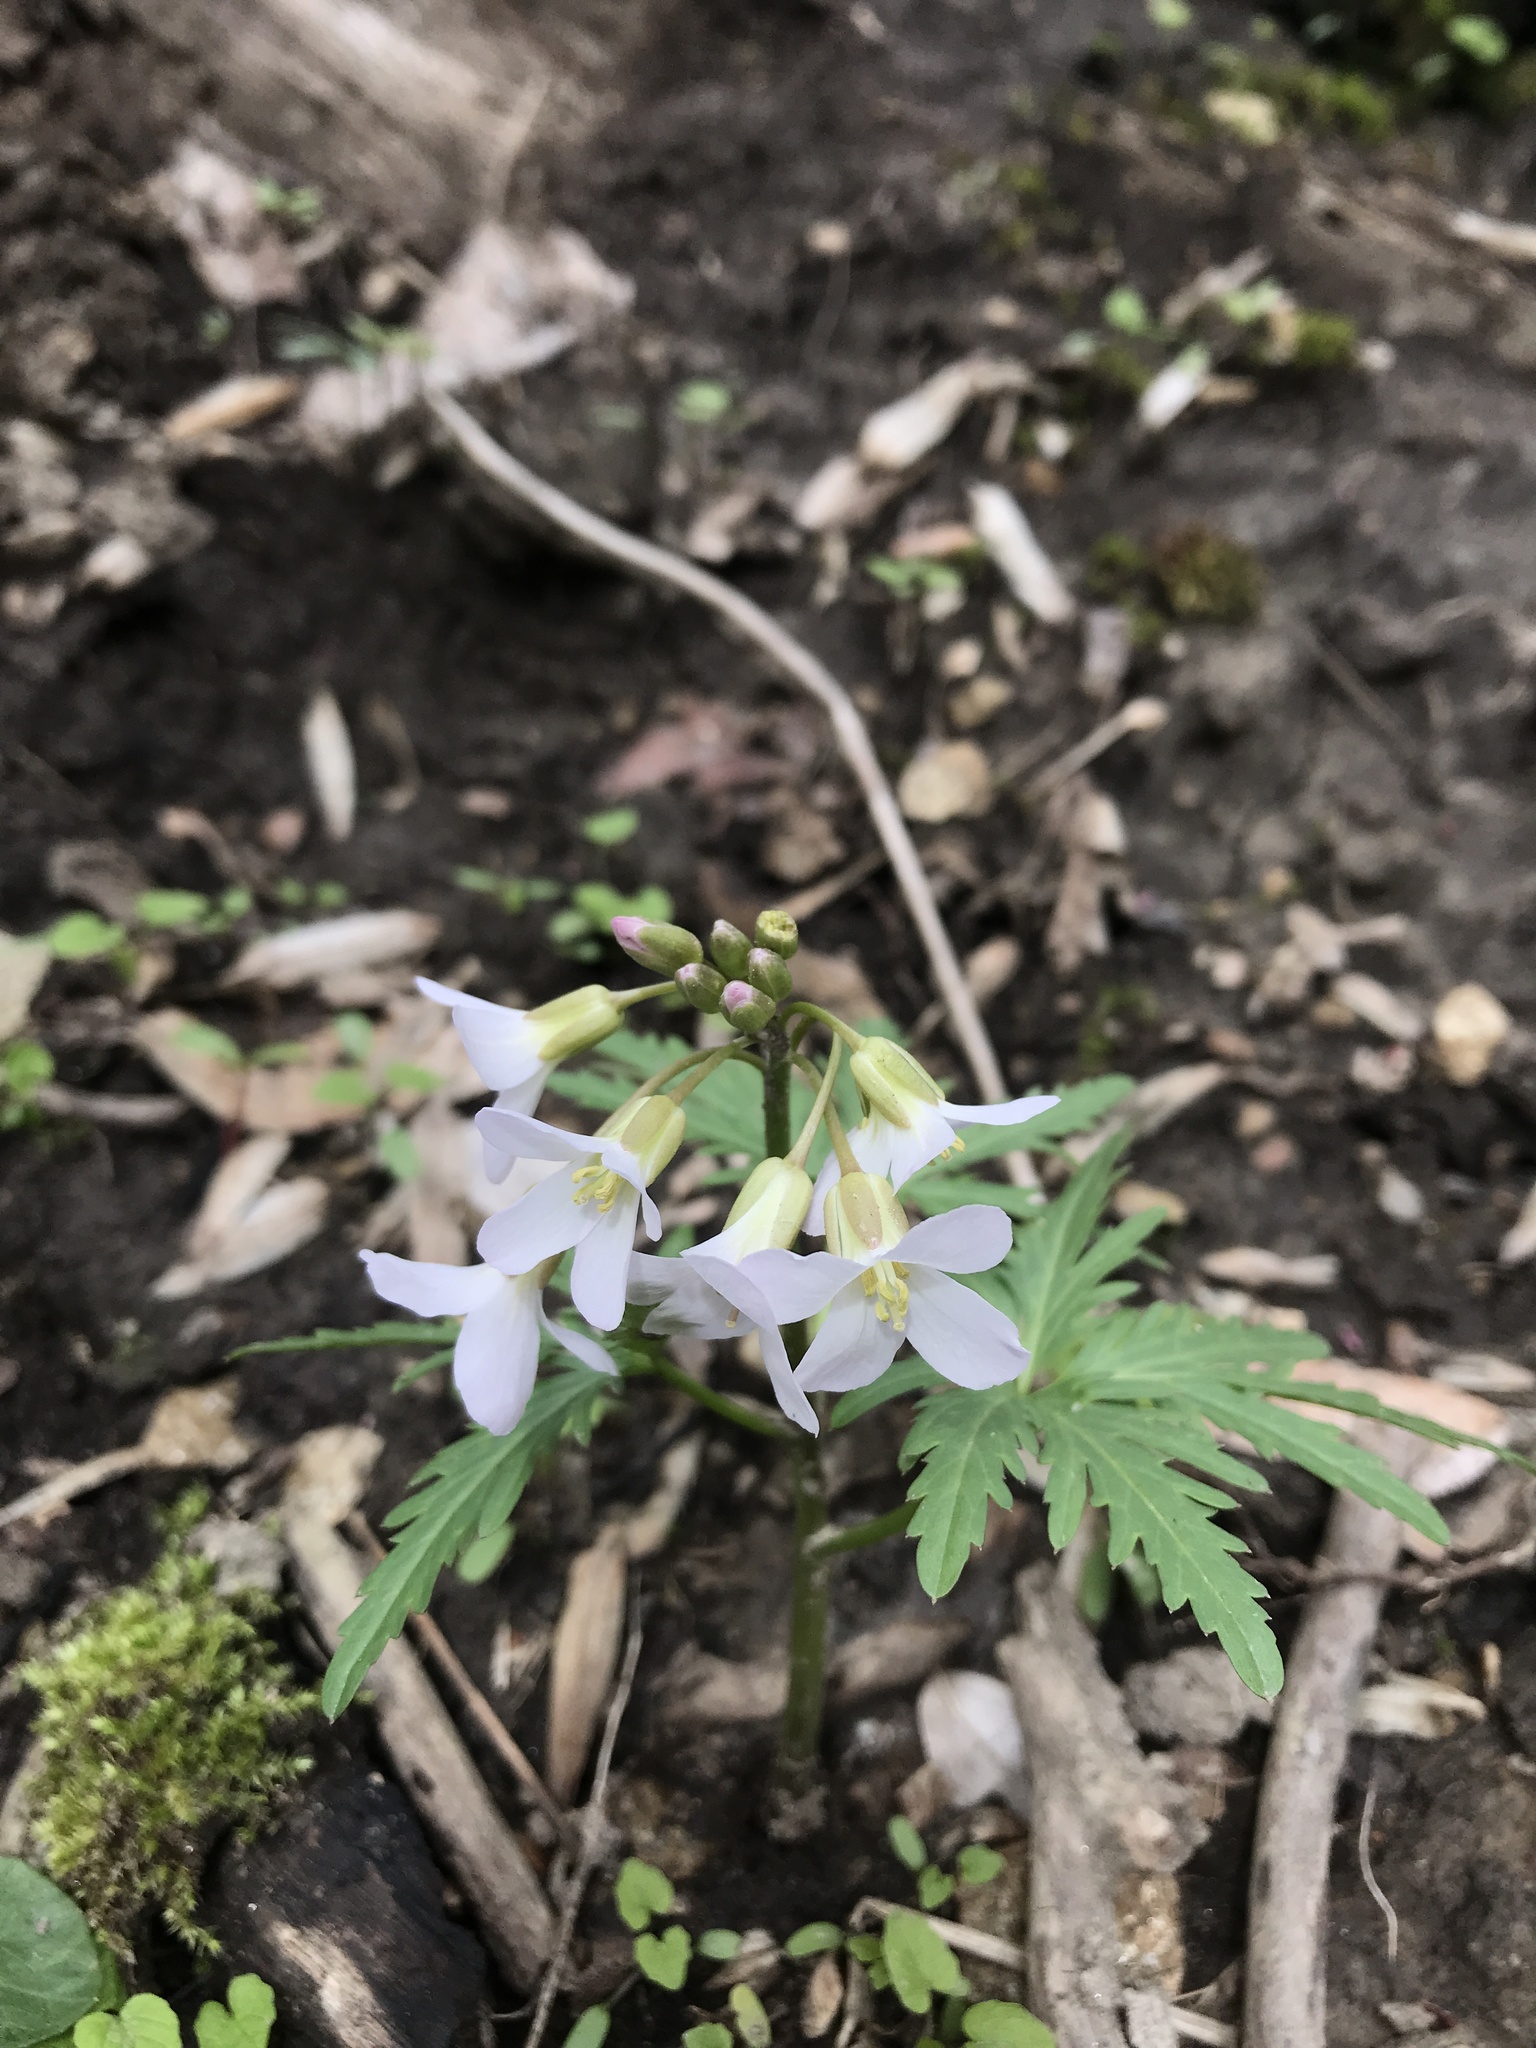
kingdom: Plantae
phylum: Tracheophyta
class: Magnoliopsida
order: Brassicales
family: Brassicaceae
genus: Cardamine
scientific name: Cardamine concatenata
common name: Cut-leaf toothcup
